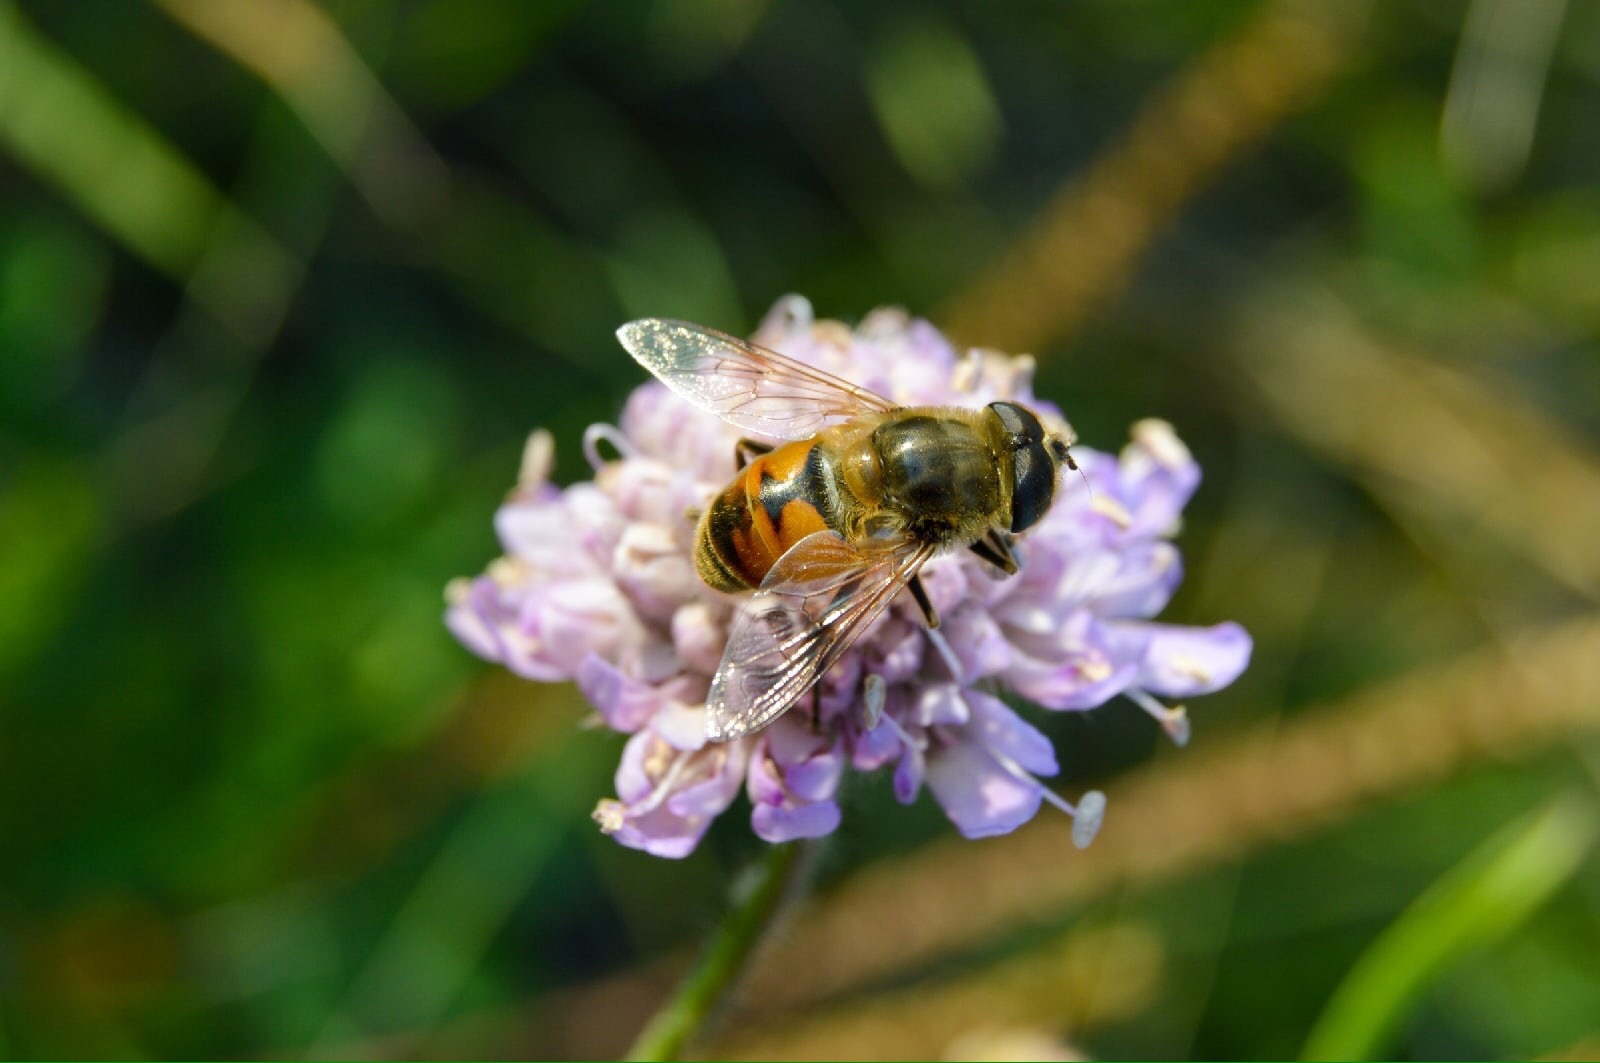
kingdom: Animalia
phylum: Arthropoda
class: Insecta
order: Diptera
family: Syrphidae
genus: Eristalis
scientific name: Eristalis tenax
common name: Drone fly
